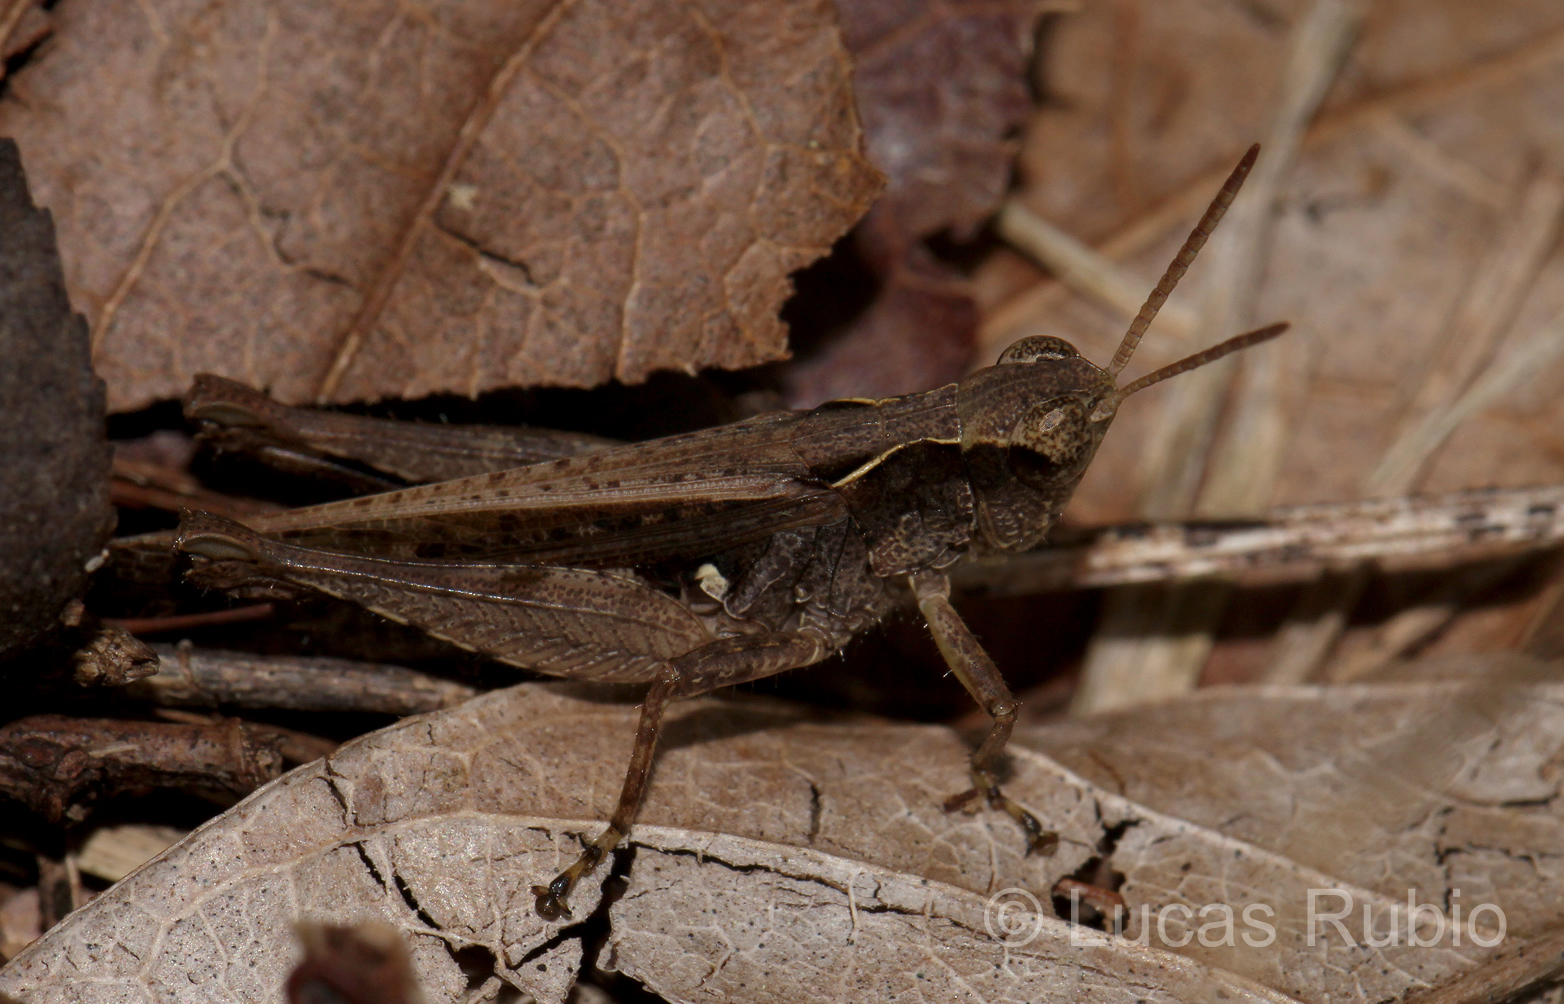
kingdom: Animalia
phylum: Arthropoda
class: Insecta
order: Orthoptera
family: Acrididae
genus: Orphulella
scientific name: Orphulella punctata
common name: Slant-faced grasshopper
